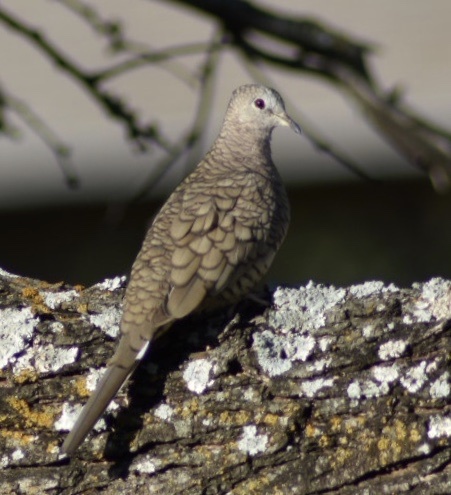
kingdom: Animalia
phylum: Chordata
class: Aves
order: Columbiformes
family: Columbidae
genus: Columbina
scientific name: Columbina inca
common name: Inca dove
